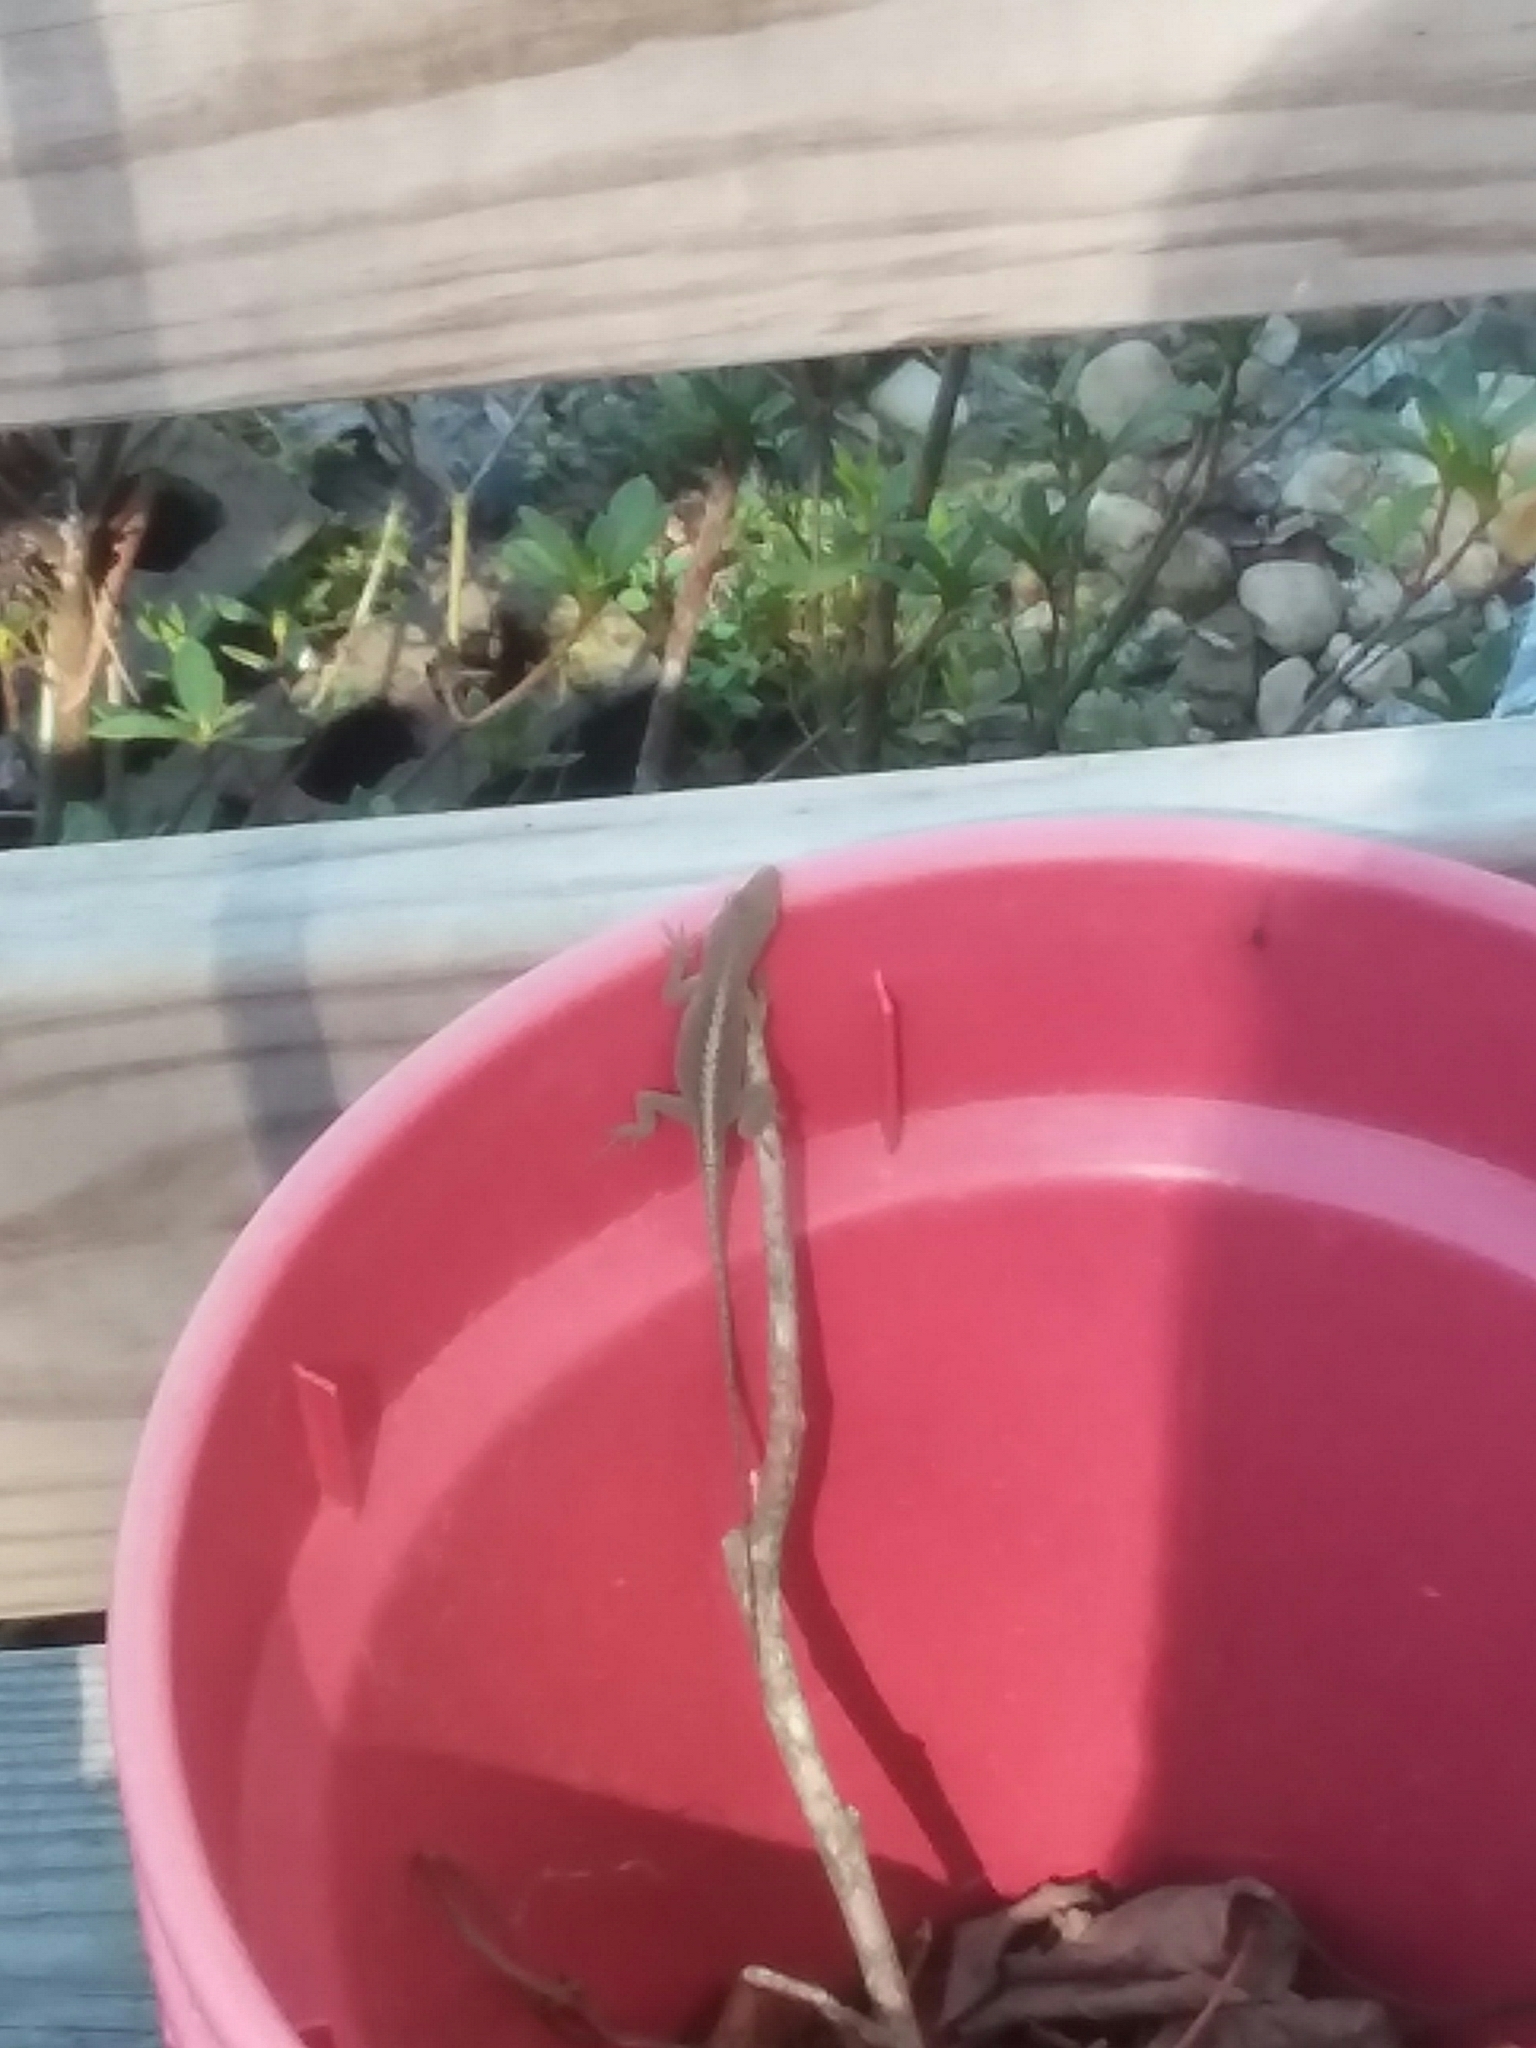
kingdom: Animalia
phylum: Chordata
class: Squamata
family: Dactyloidae
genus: Anolis
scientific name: Anolis carolinensis
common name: Green anole
